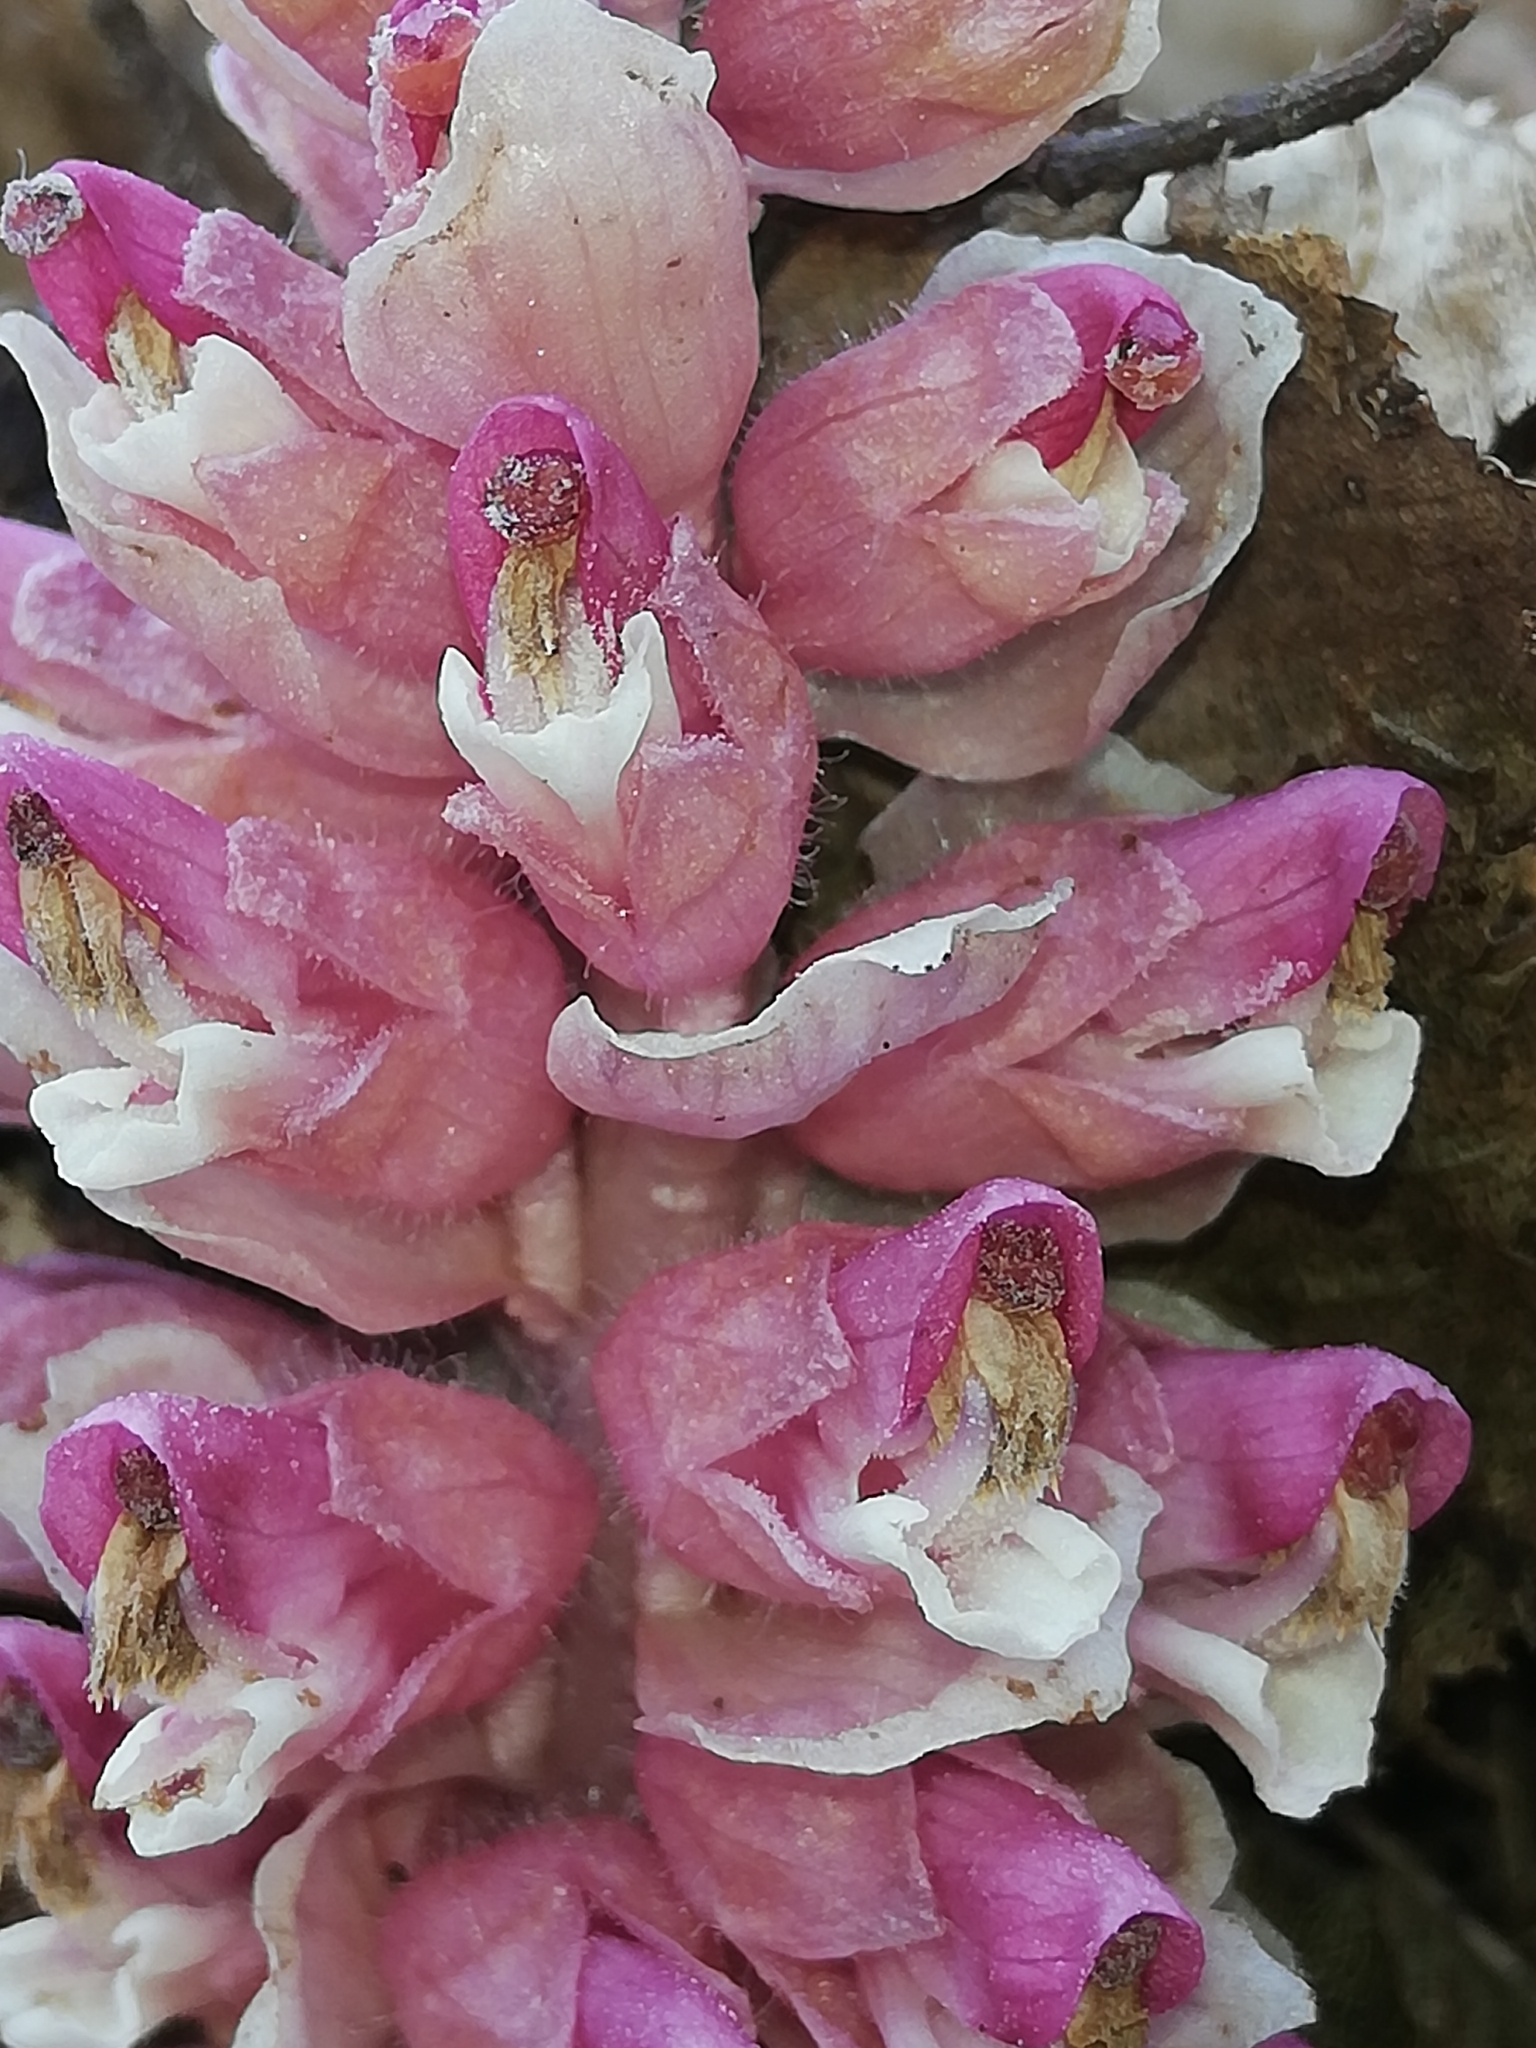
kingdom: Plantae
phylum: Tracheophyta
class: Magnoliopsida
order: Lamiales
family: Orobanchaceae
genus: Lathraea
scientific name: Lathraea squamaria
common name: Toothwort
